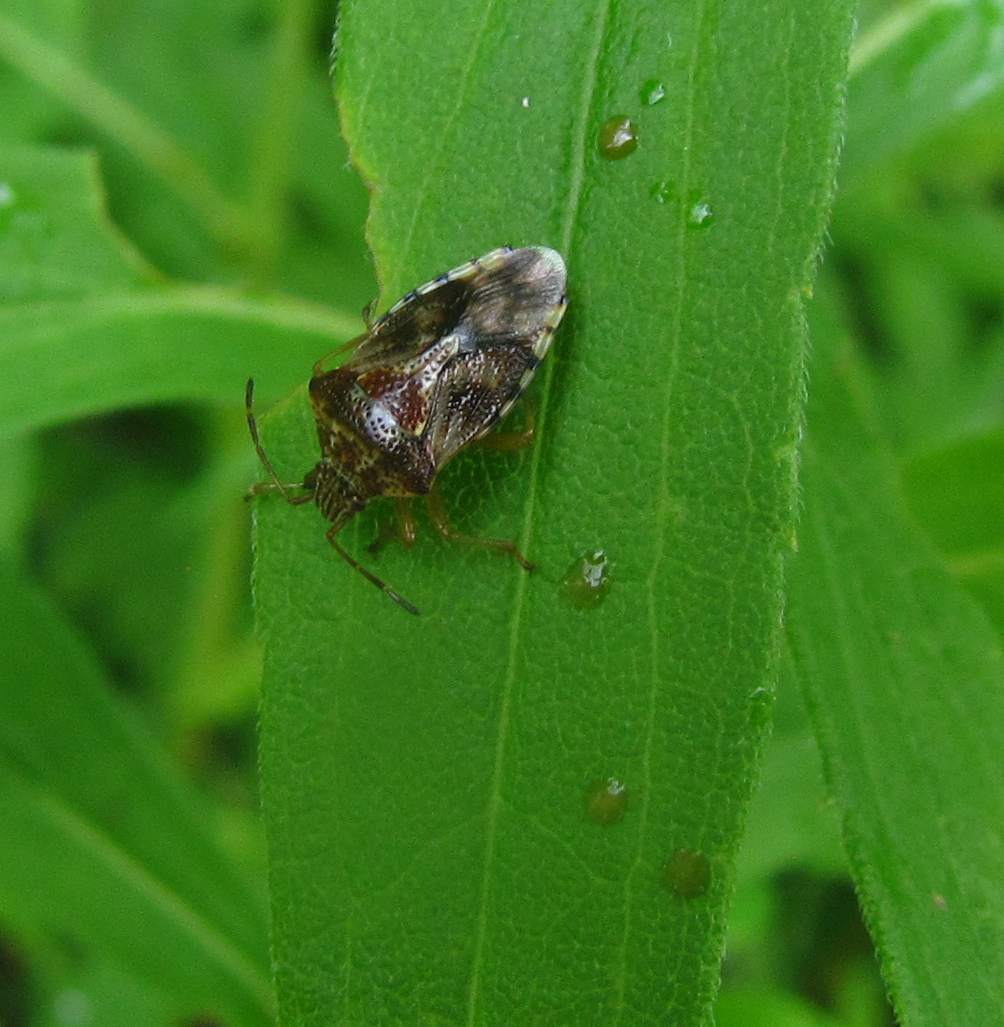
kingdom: Animalia
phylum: Arthropoda
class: Insecta
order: Hemiptera
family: Acanthosomatidae
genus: Elasmucha
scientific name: Elasmucha lateralis
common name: Shield bug
